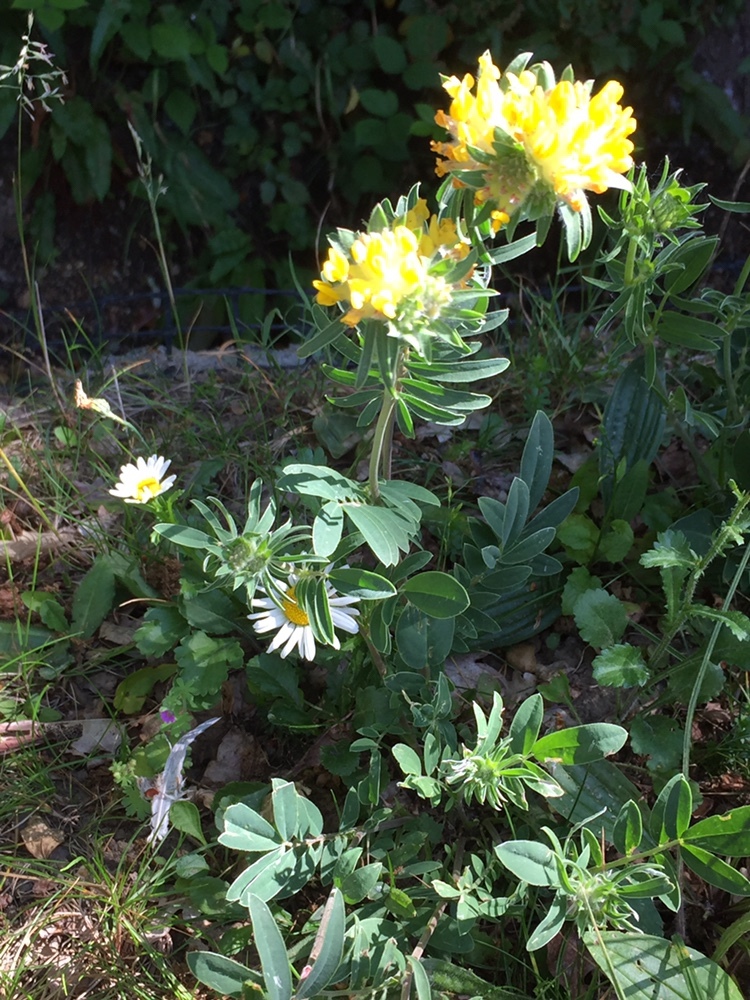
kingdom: Plantae
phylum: Tracheophyta
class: Magnoliopsida
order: Fabales
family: Fabaceae
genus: Anthyllis
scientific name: Anthyllis vulneraria
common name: Kidney vetch
